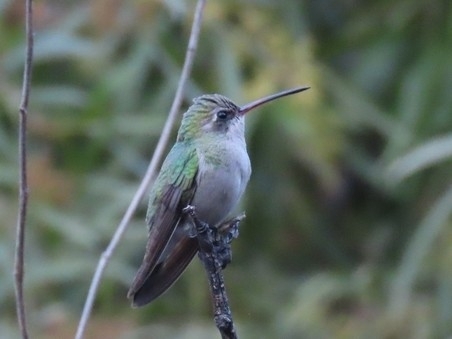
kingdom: Animalia
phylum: Chordata
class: Aves
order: Apodiformes
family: Trochilidae
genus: Cynanthus
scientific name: Cynanthus latirostris
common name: Broad-billed hummingbird
